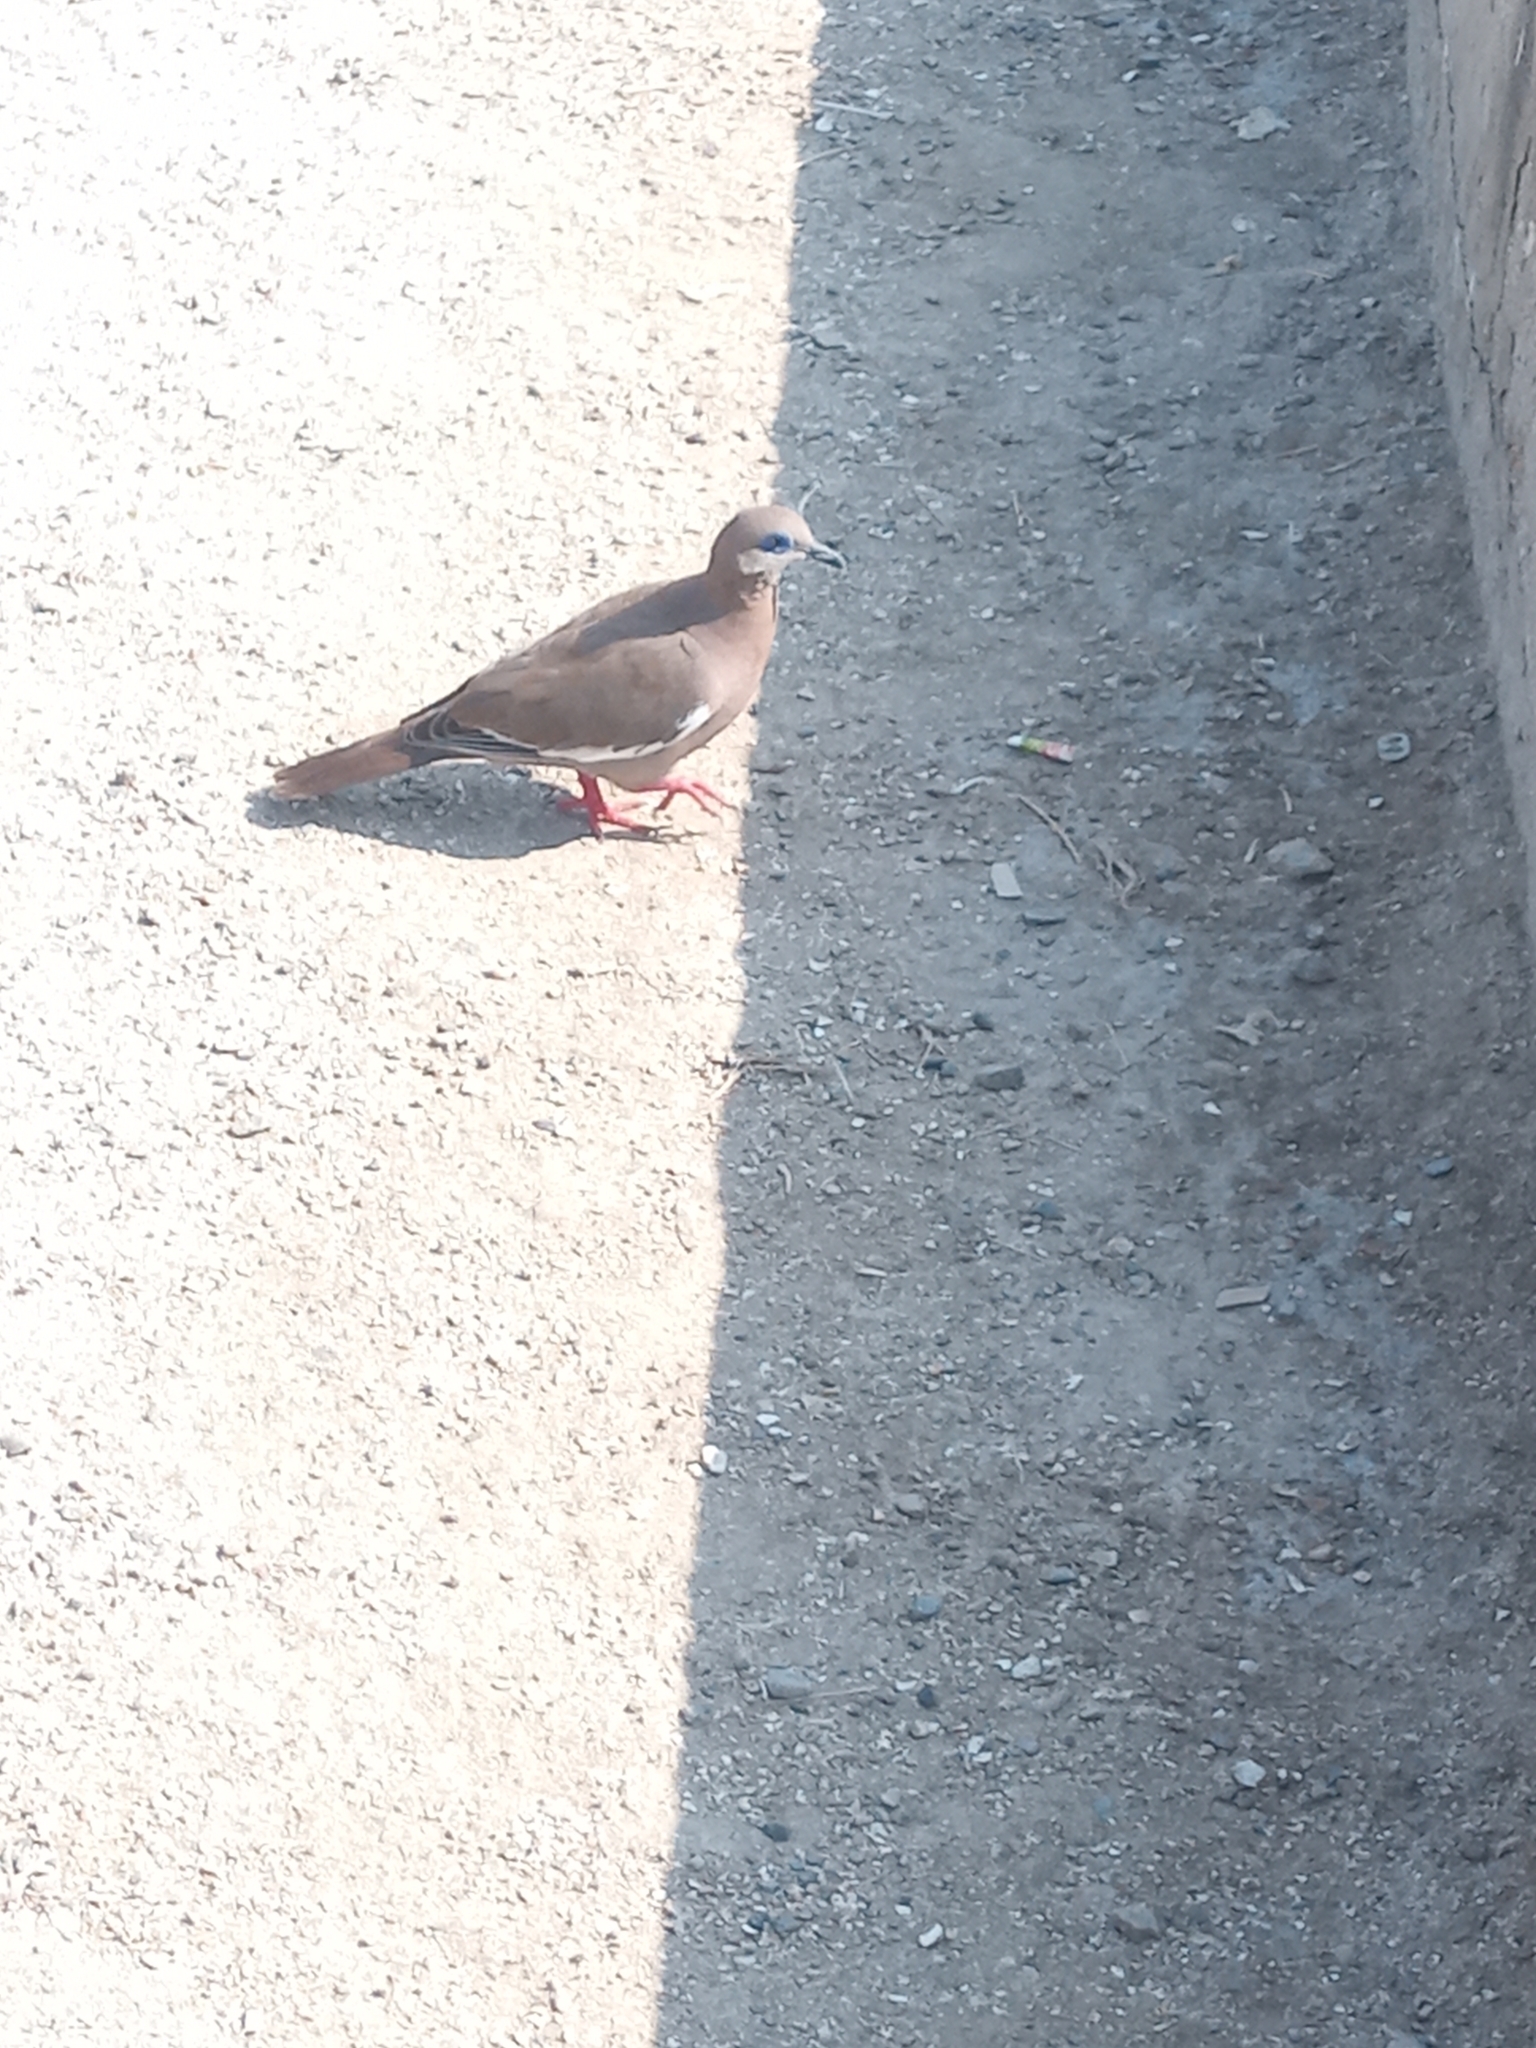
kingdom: Animalia
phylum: Chordata
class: Aves
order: Columbiformes
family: Columbidae
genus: Zenaida
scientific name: Zenaida meloda
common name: West peruvian dove
